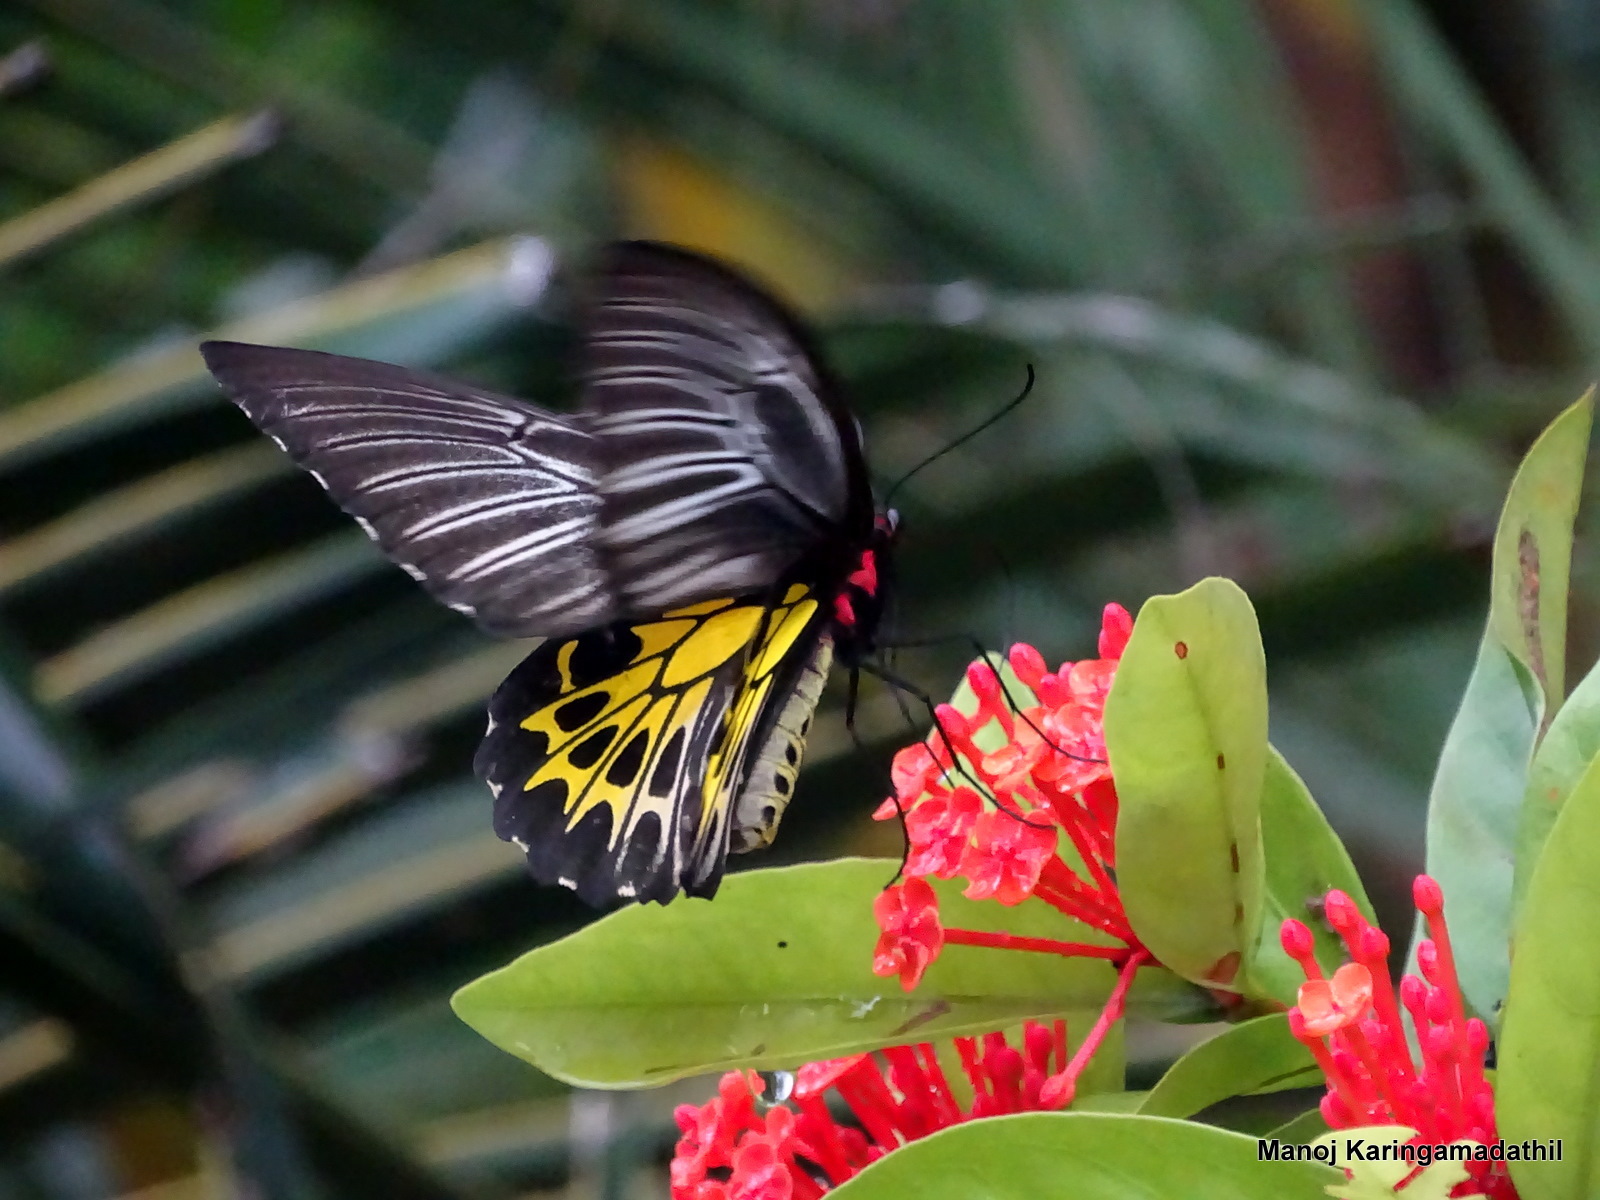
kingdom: Animalia
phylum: Arthropoda
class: Insecta
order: Lepidoptera
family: Papilionidae
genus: Troides
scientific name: Troides minos
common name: Malabar birdwing
